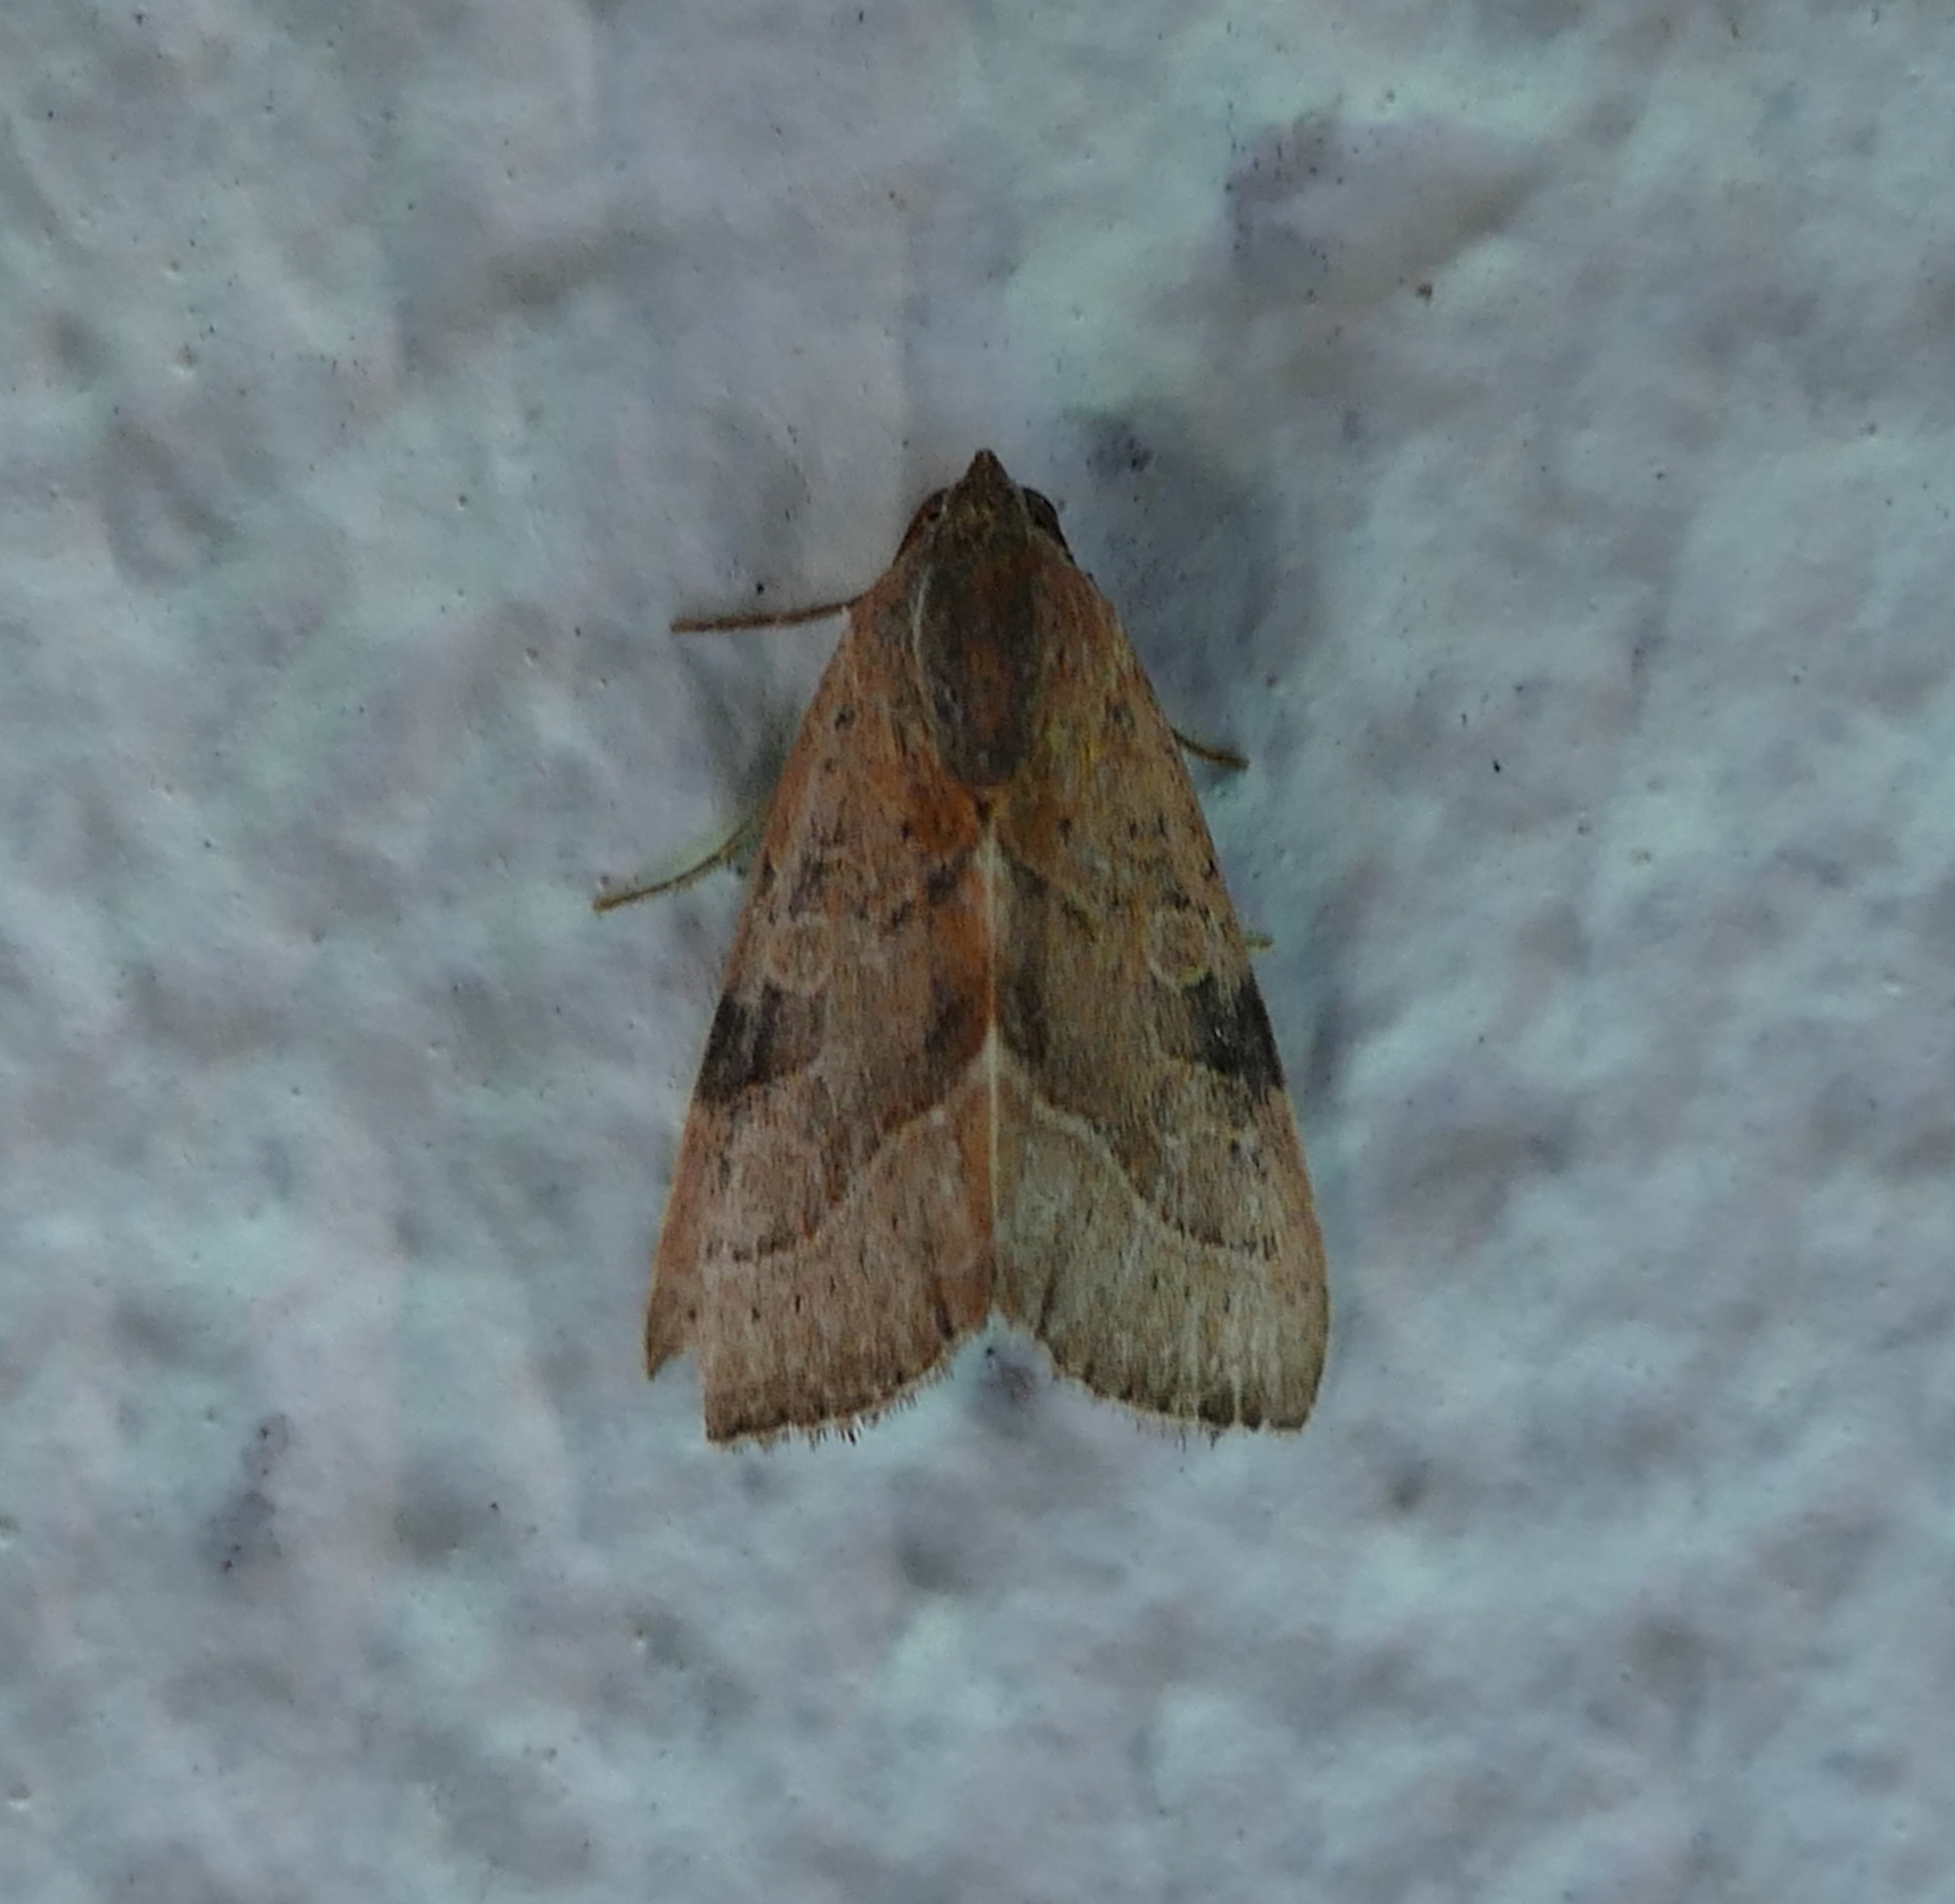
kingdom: Animalia
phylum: Arthropoda
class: Insecta
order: Lepidoptera
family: Noctuidae
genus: Galgula
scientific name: Galgula partita
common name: Wedgeling
